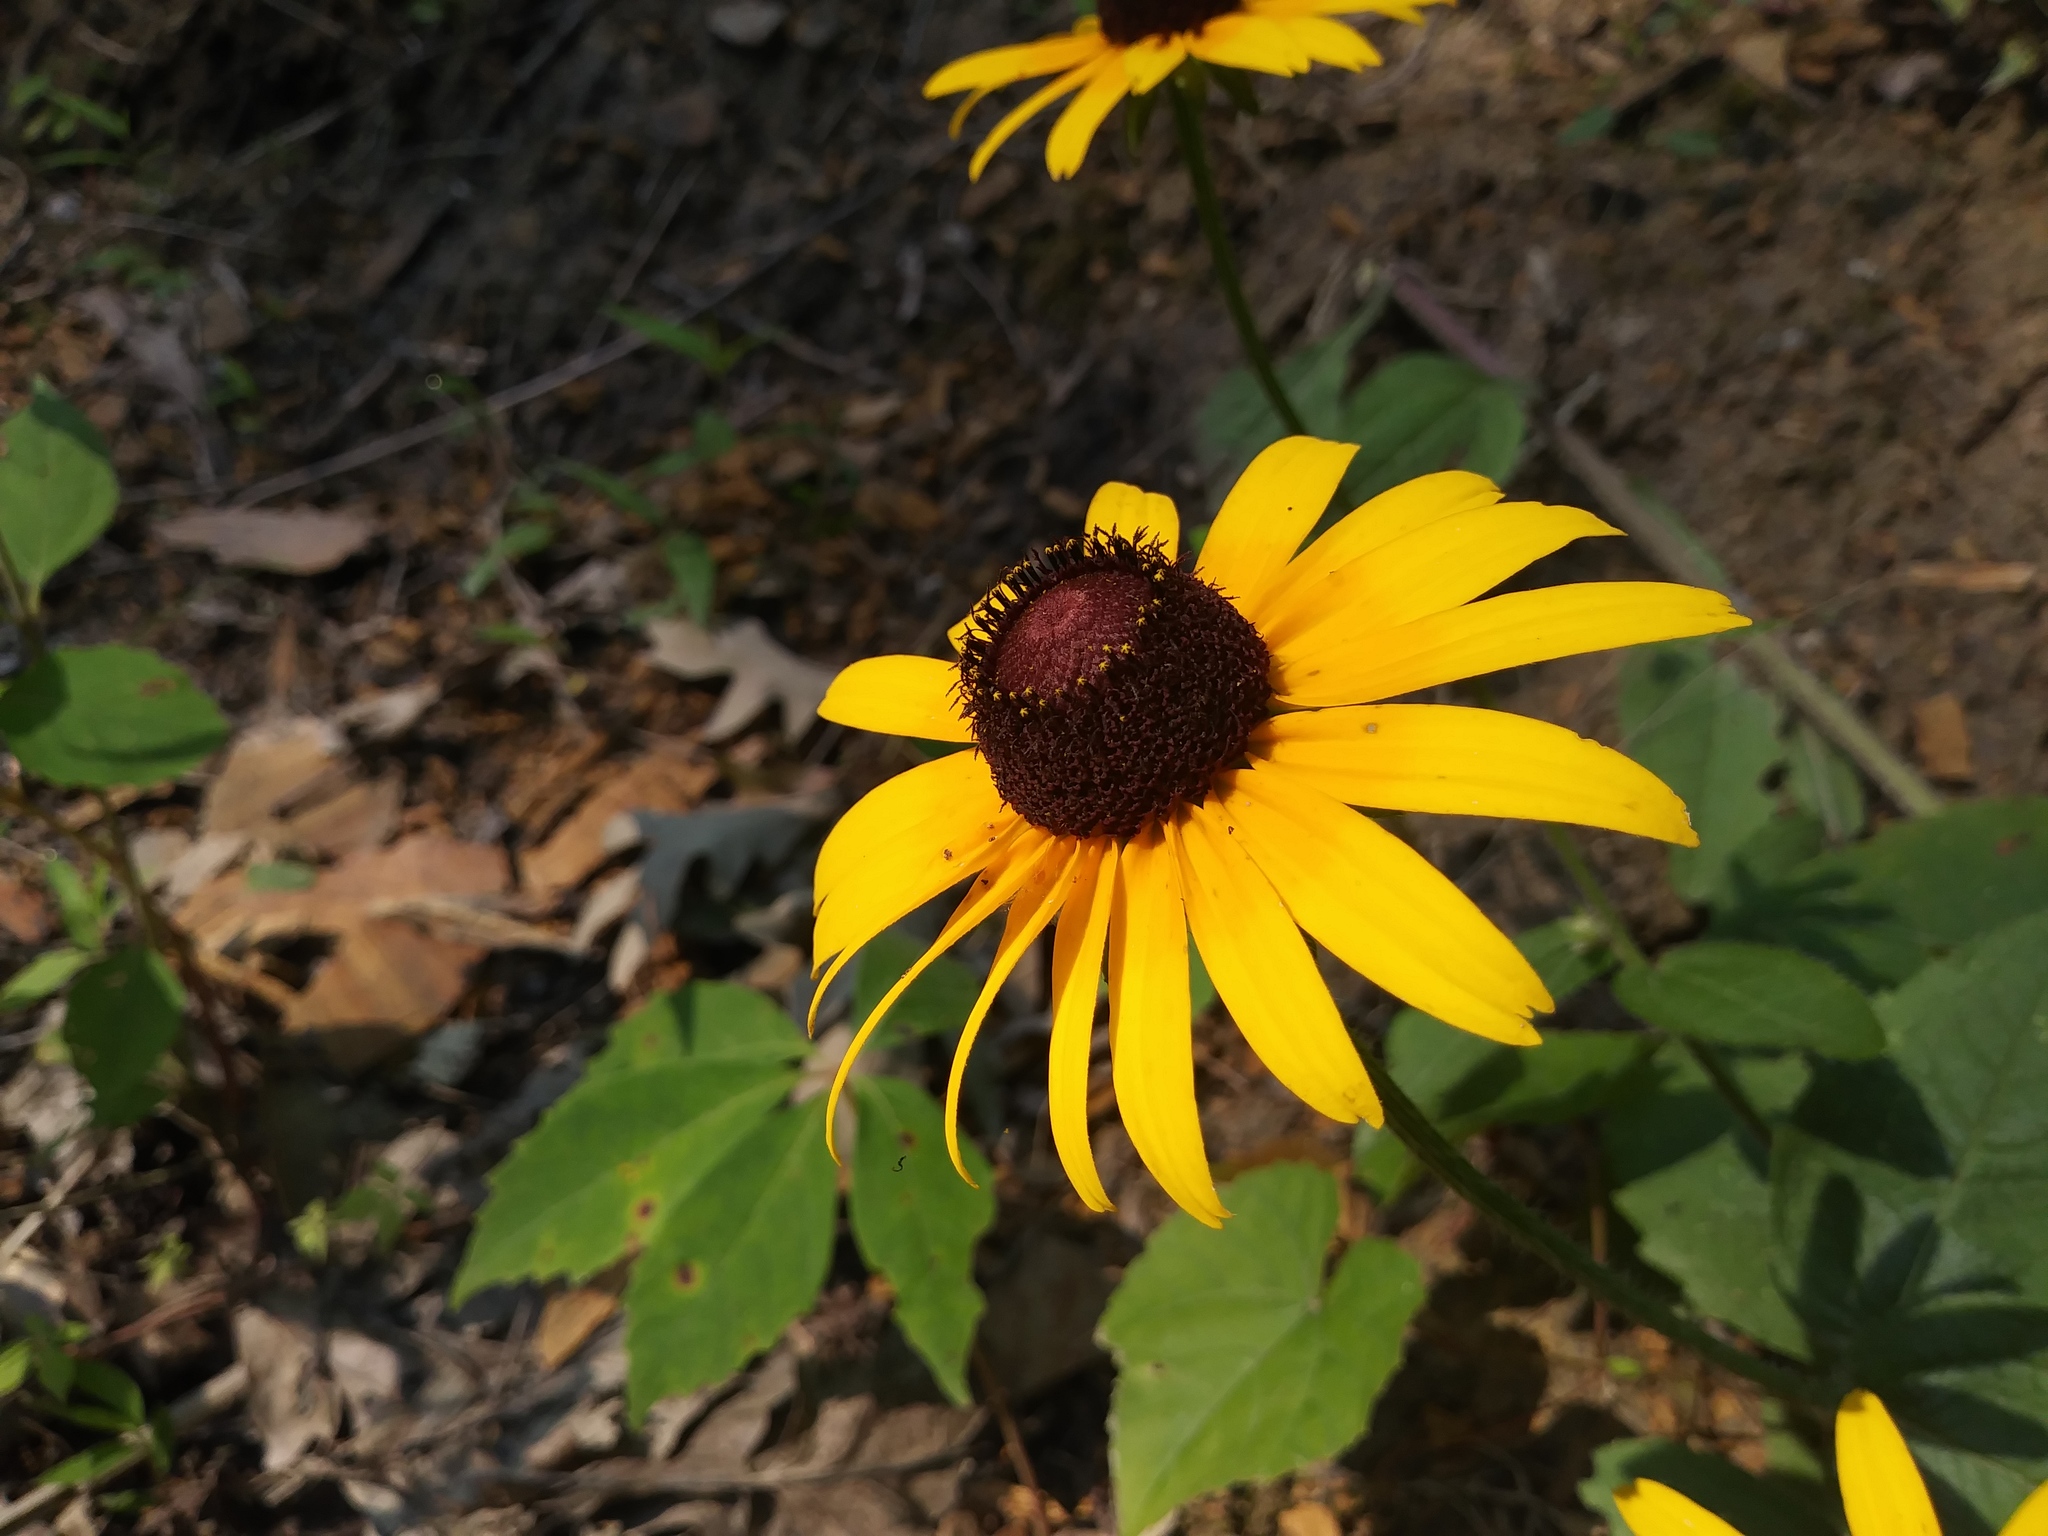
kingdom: Plantae
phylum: Tracheophyta
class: Magnoliopsida
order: Asterales
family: Asteraceae
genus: Rudbeckia
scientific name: Rudbeckia hirta
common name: Black-eyed-susan
